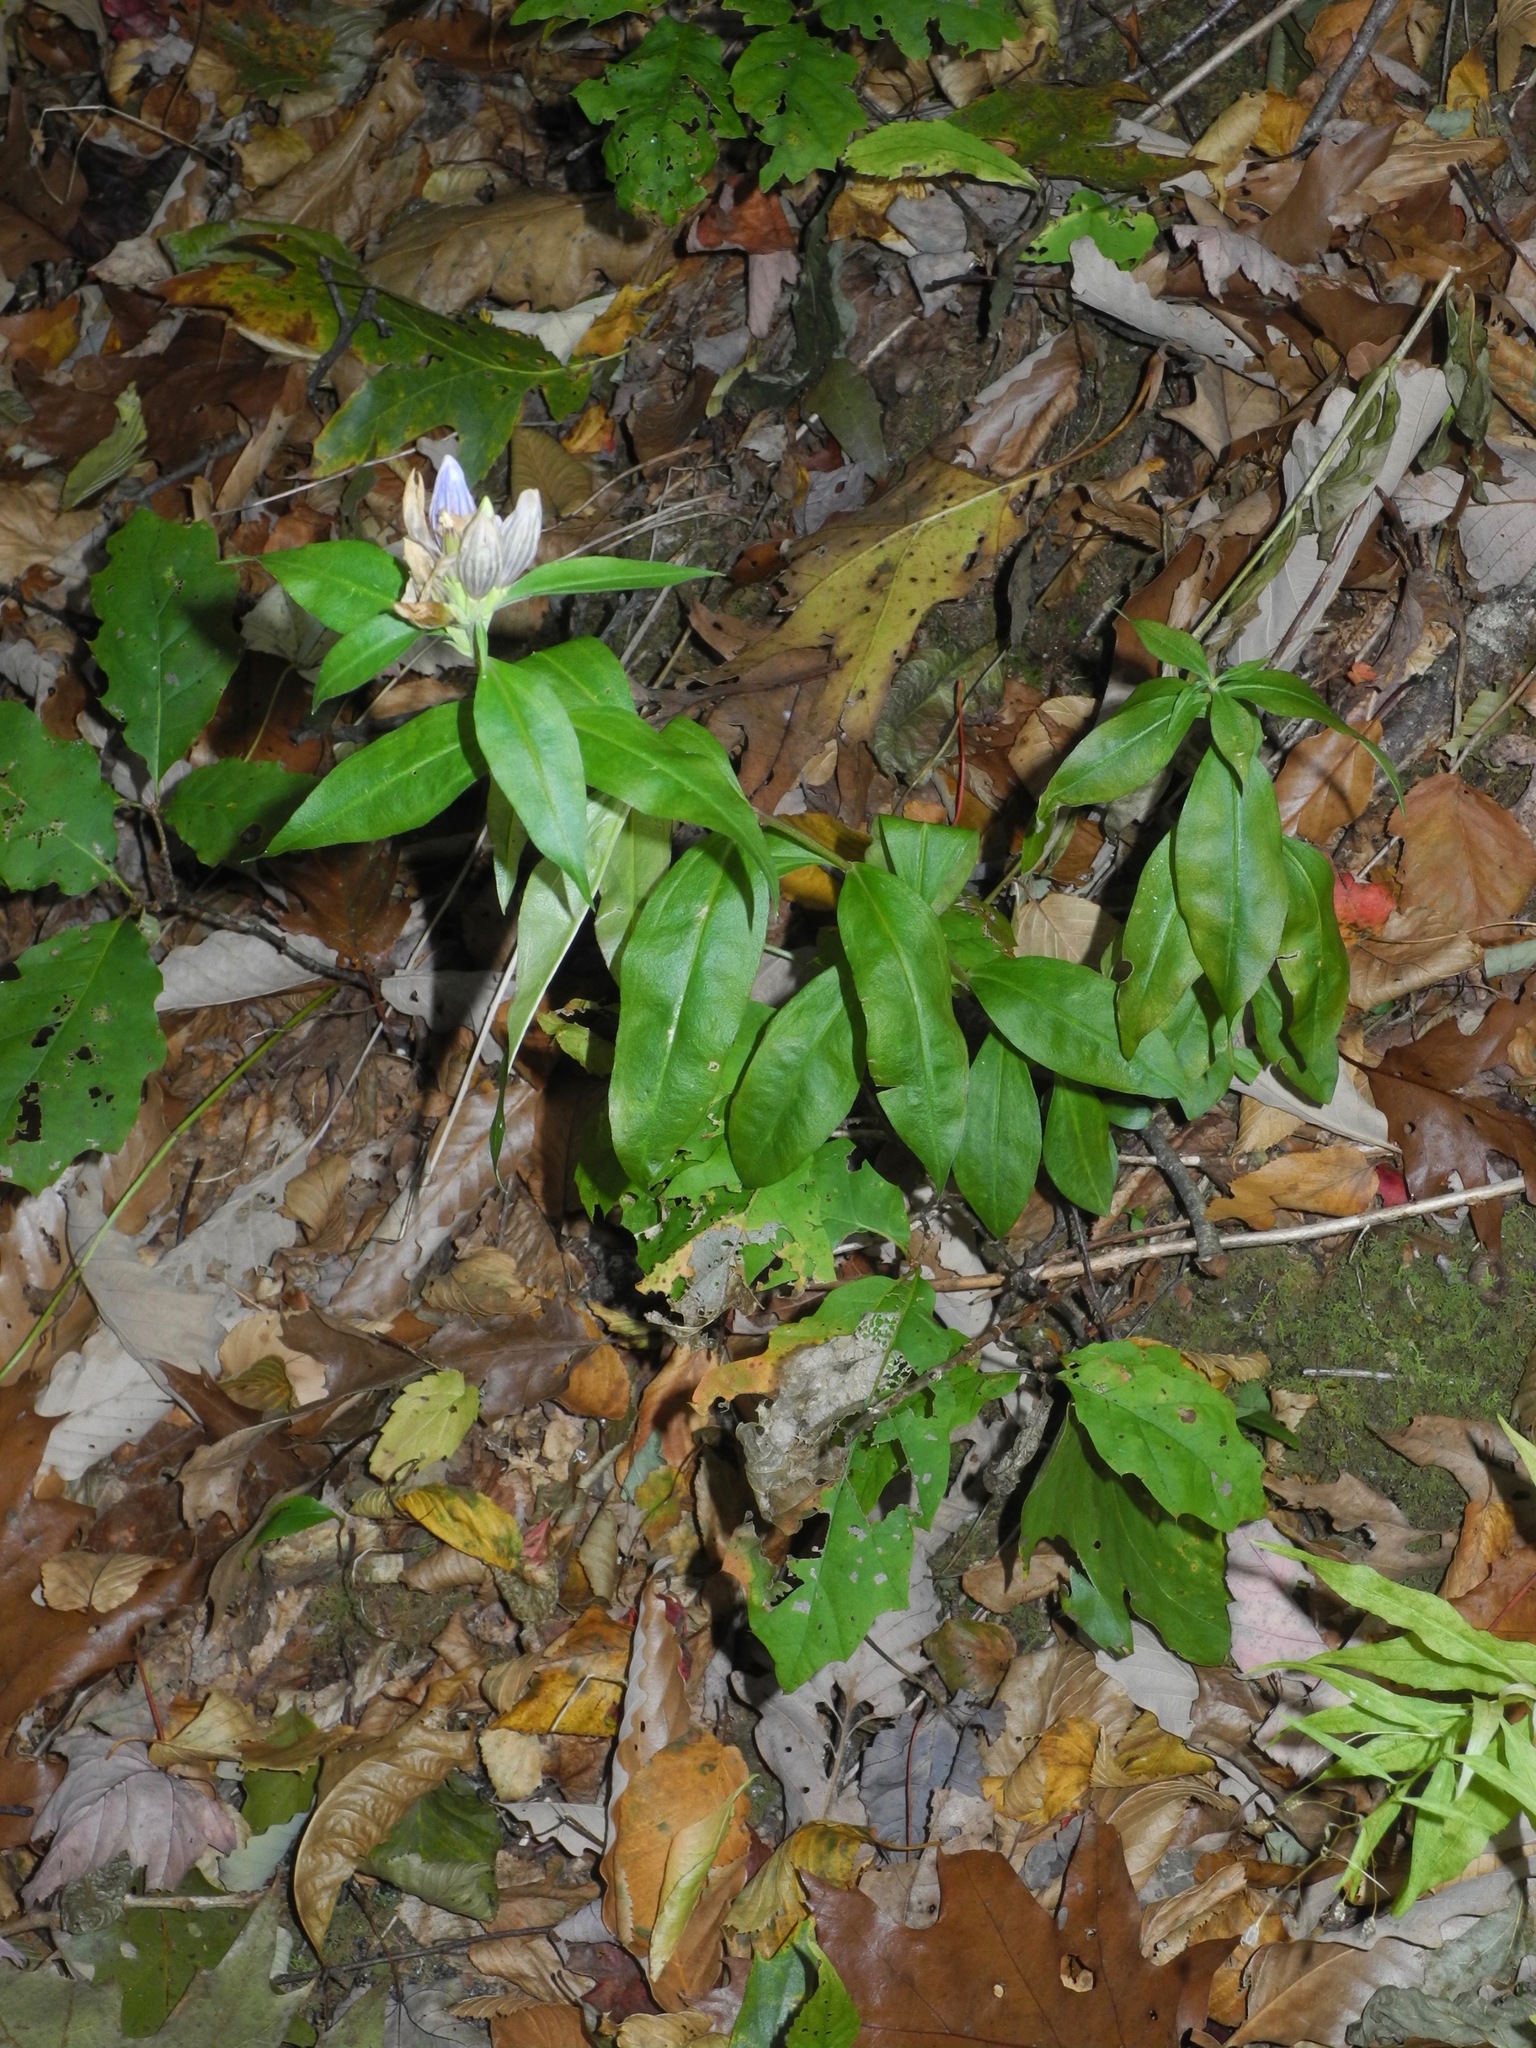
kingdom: Plantae
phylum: Tracheophyta
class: Magnoliopsida
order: Gentianales
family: Gentianaceae
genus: Gentiana
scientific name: Gentiana villosa
